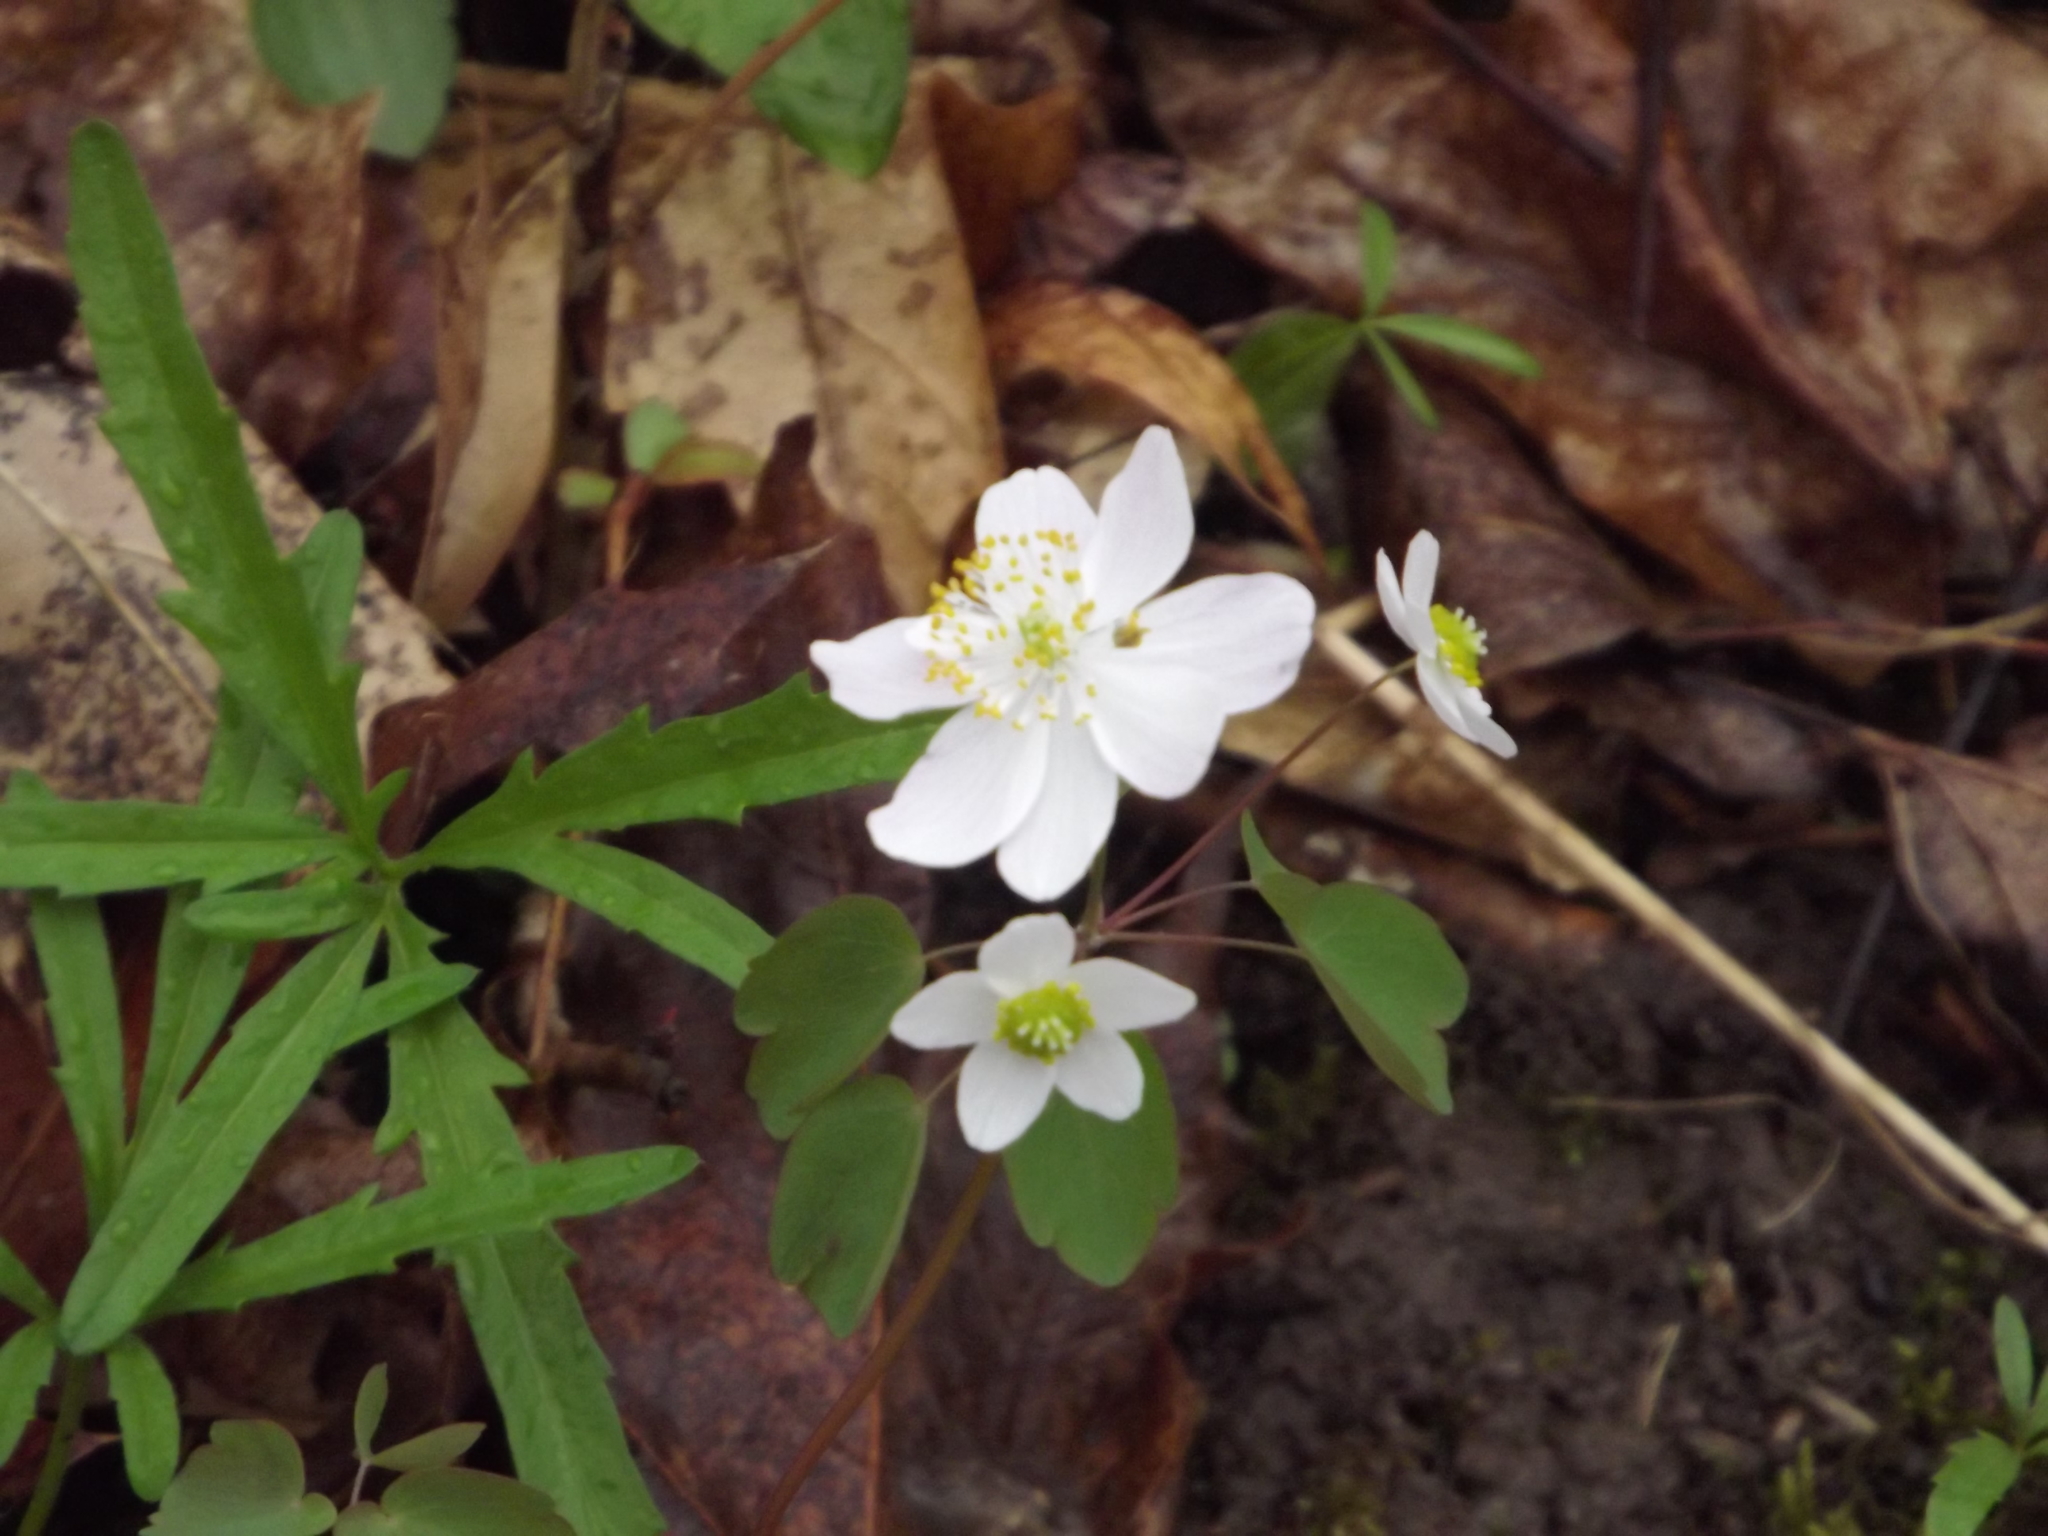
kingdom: Plantae
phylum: Tracheophyta
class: Magnoliopsida
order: Ranunculales
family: Ranunculaceae
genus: Thalictrum
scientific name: Thalictrum thalictroides
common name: Rue-anemone
